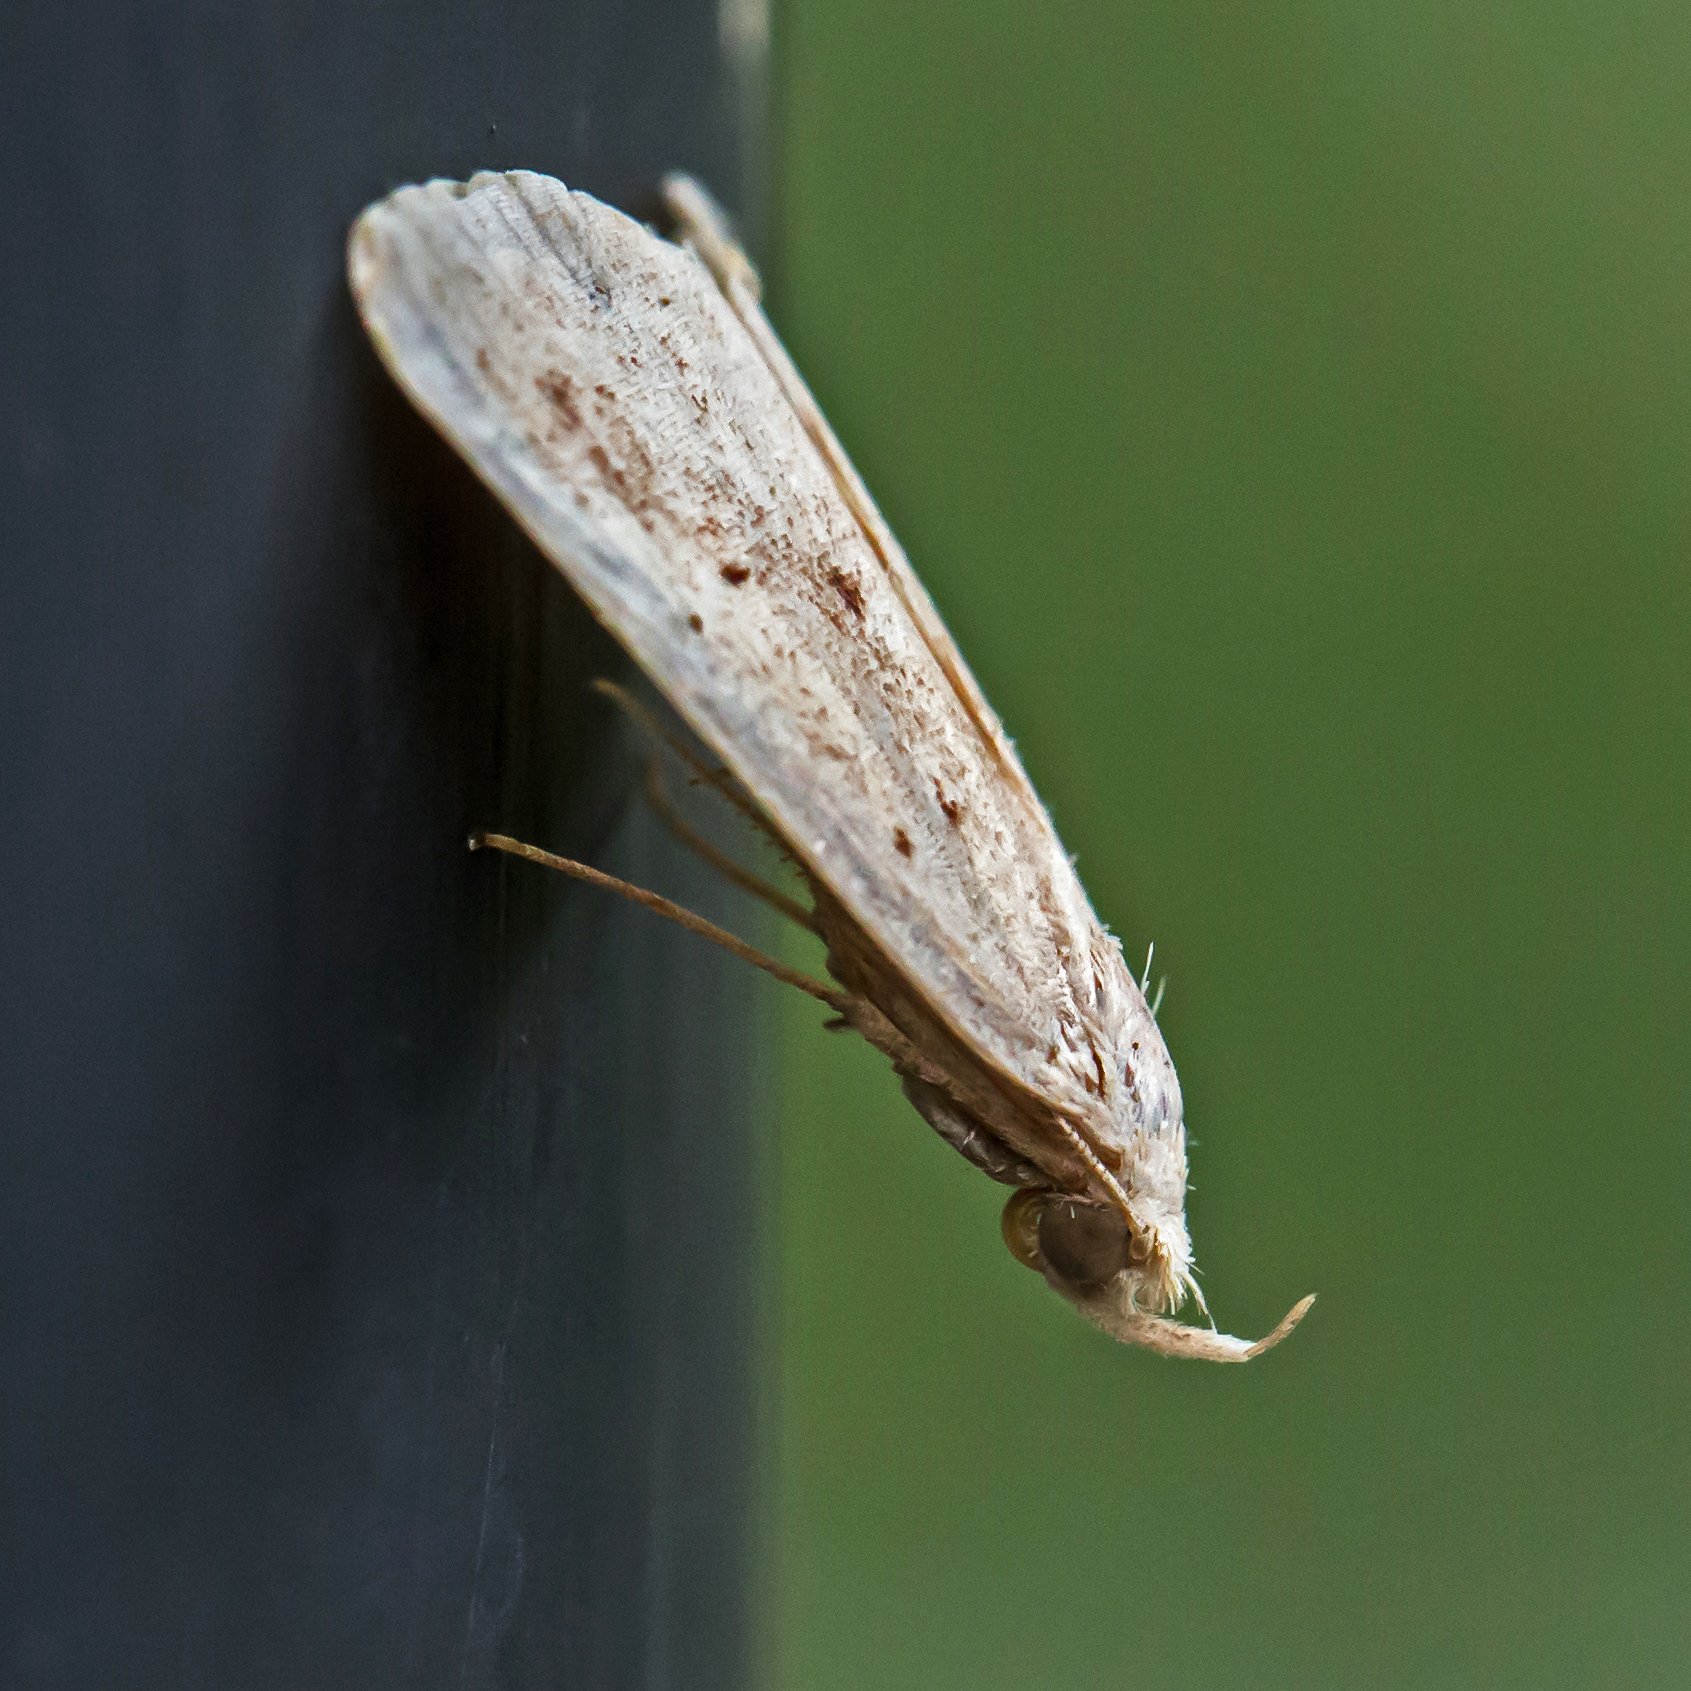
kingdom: Animalia
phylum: Arthropoda
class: Insecta
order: Lepidoptera
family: Erebidae
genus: Macrochilo
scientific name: Macrochilo louisiana
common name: Louisiana macrochilo
